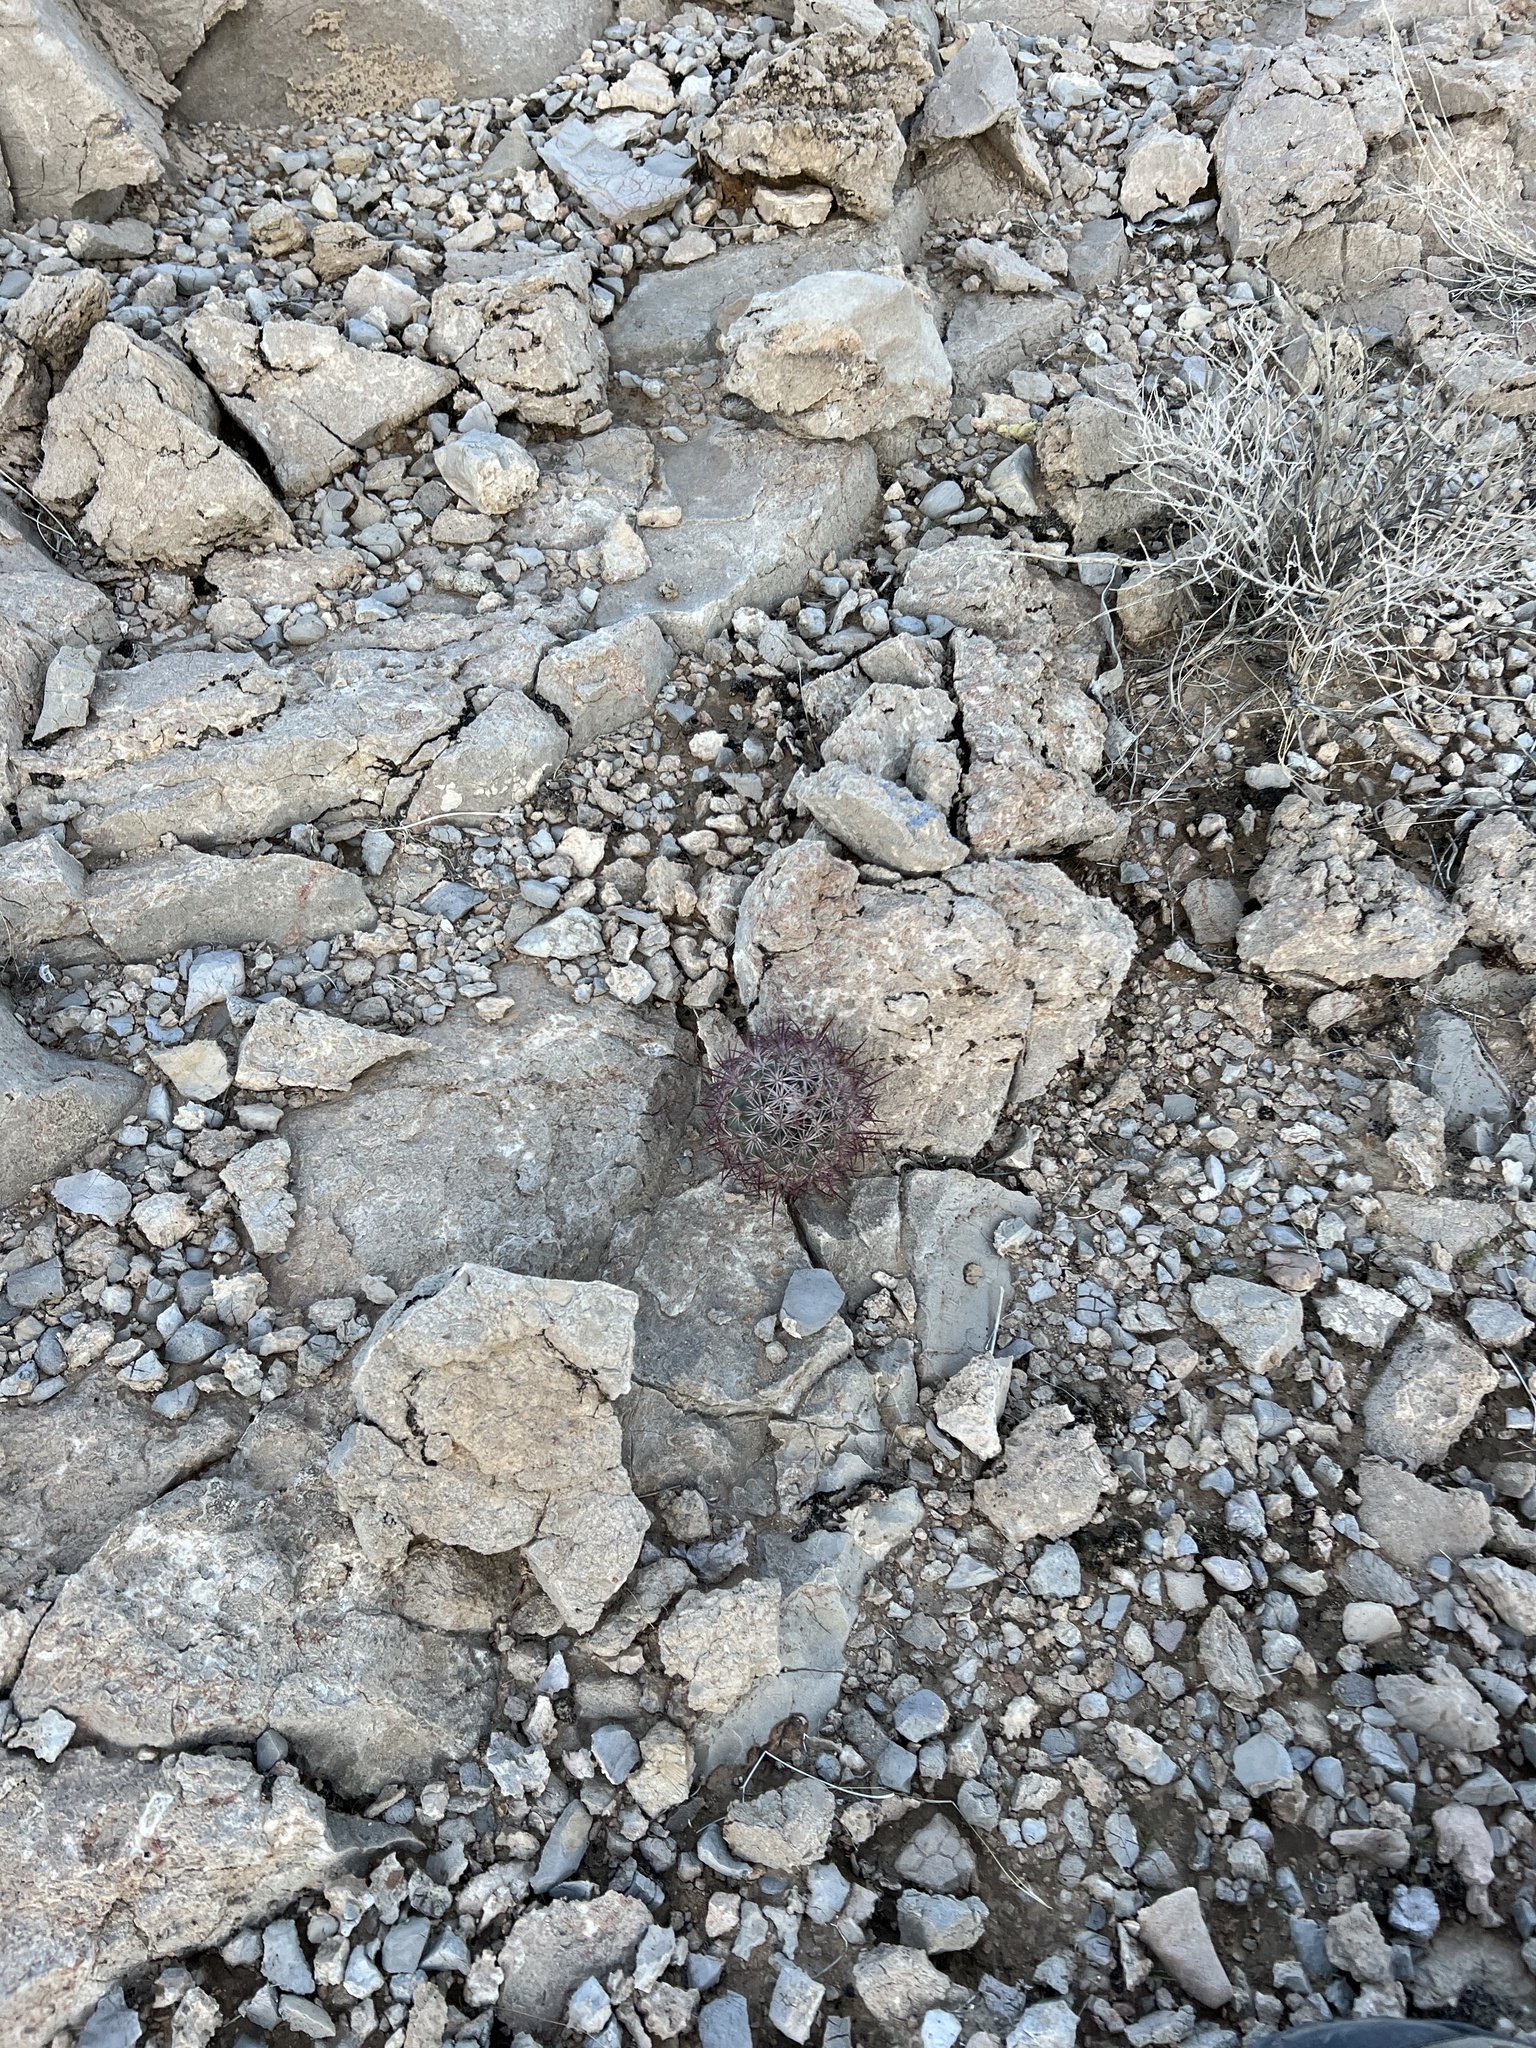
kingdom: Plantae
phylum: Tracheophyta
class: Magnoliopsida
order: Caryophyllales
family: Cactaceae
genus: Sclerocactus
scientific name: Sclerocactus johnsonii
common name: Eight-spine fishhook cactus
